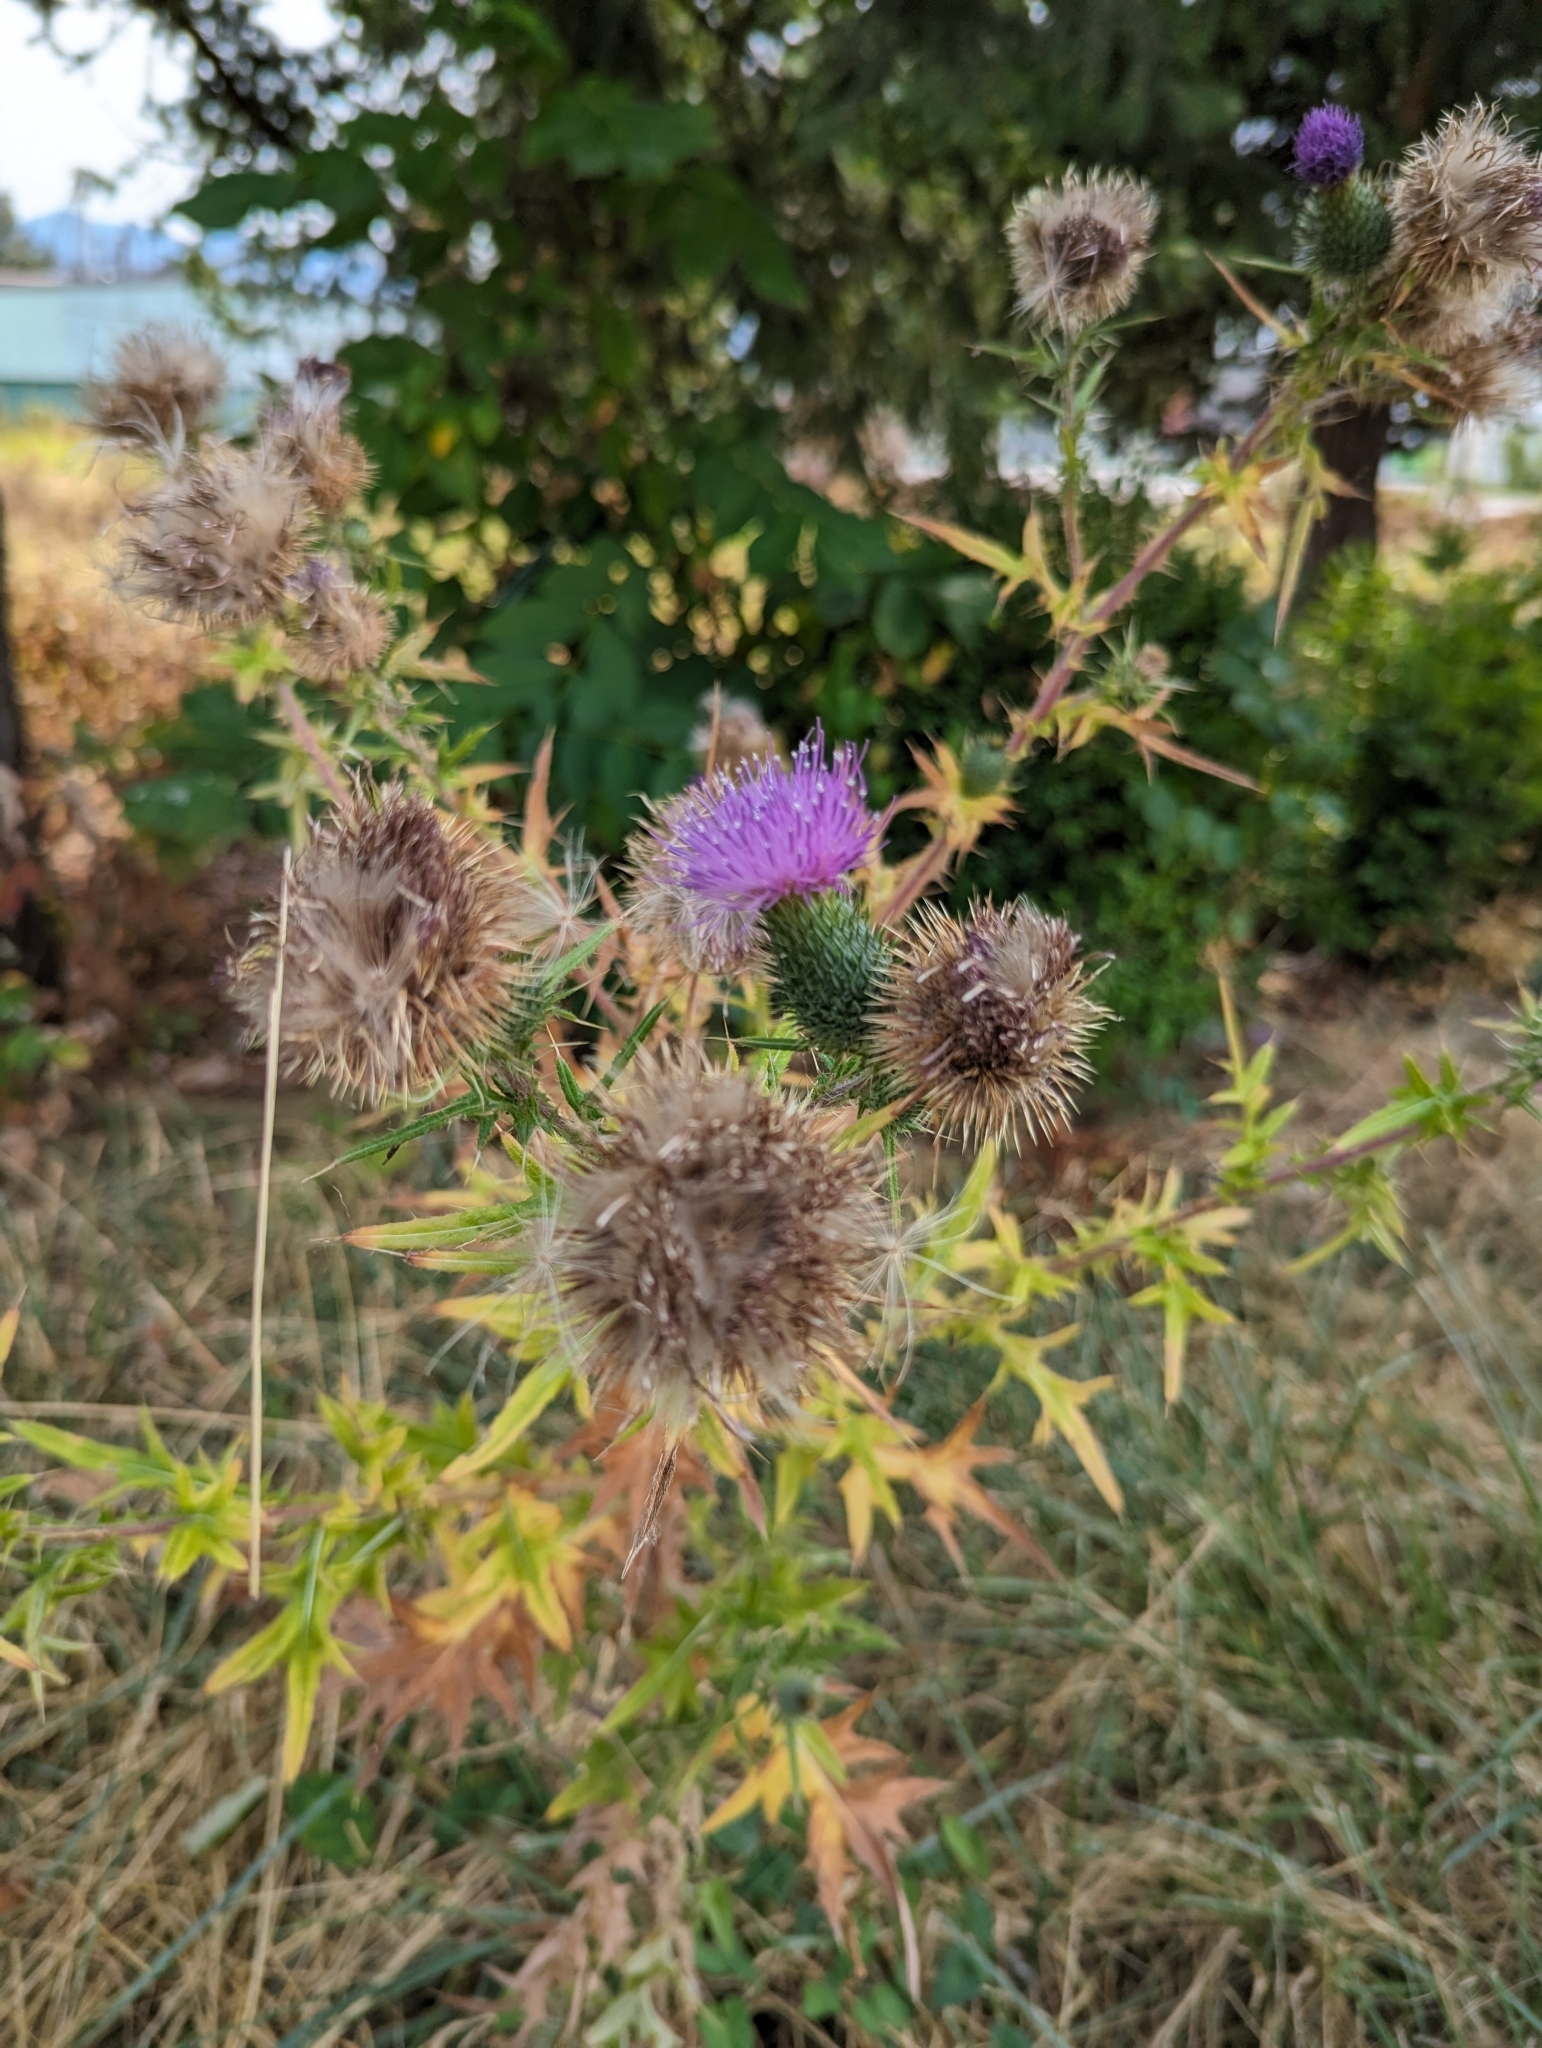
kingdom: Plantae
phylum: Tracheophyta
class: Magnoliopsida
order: Asterales
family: Asteraceae
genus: Cirsium
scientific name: Cirsium vulgare
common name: Bull thistle
